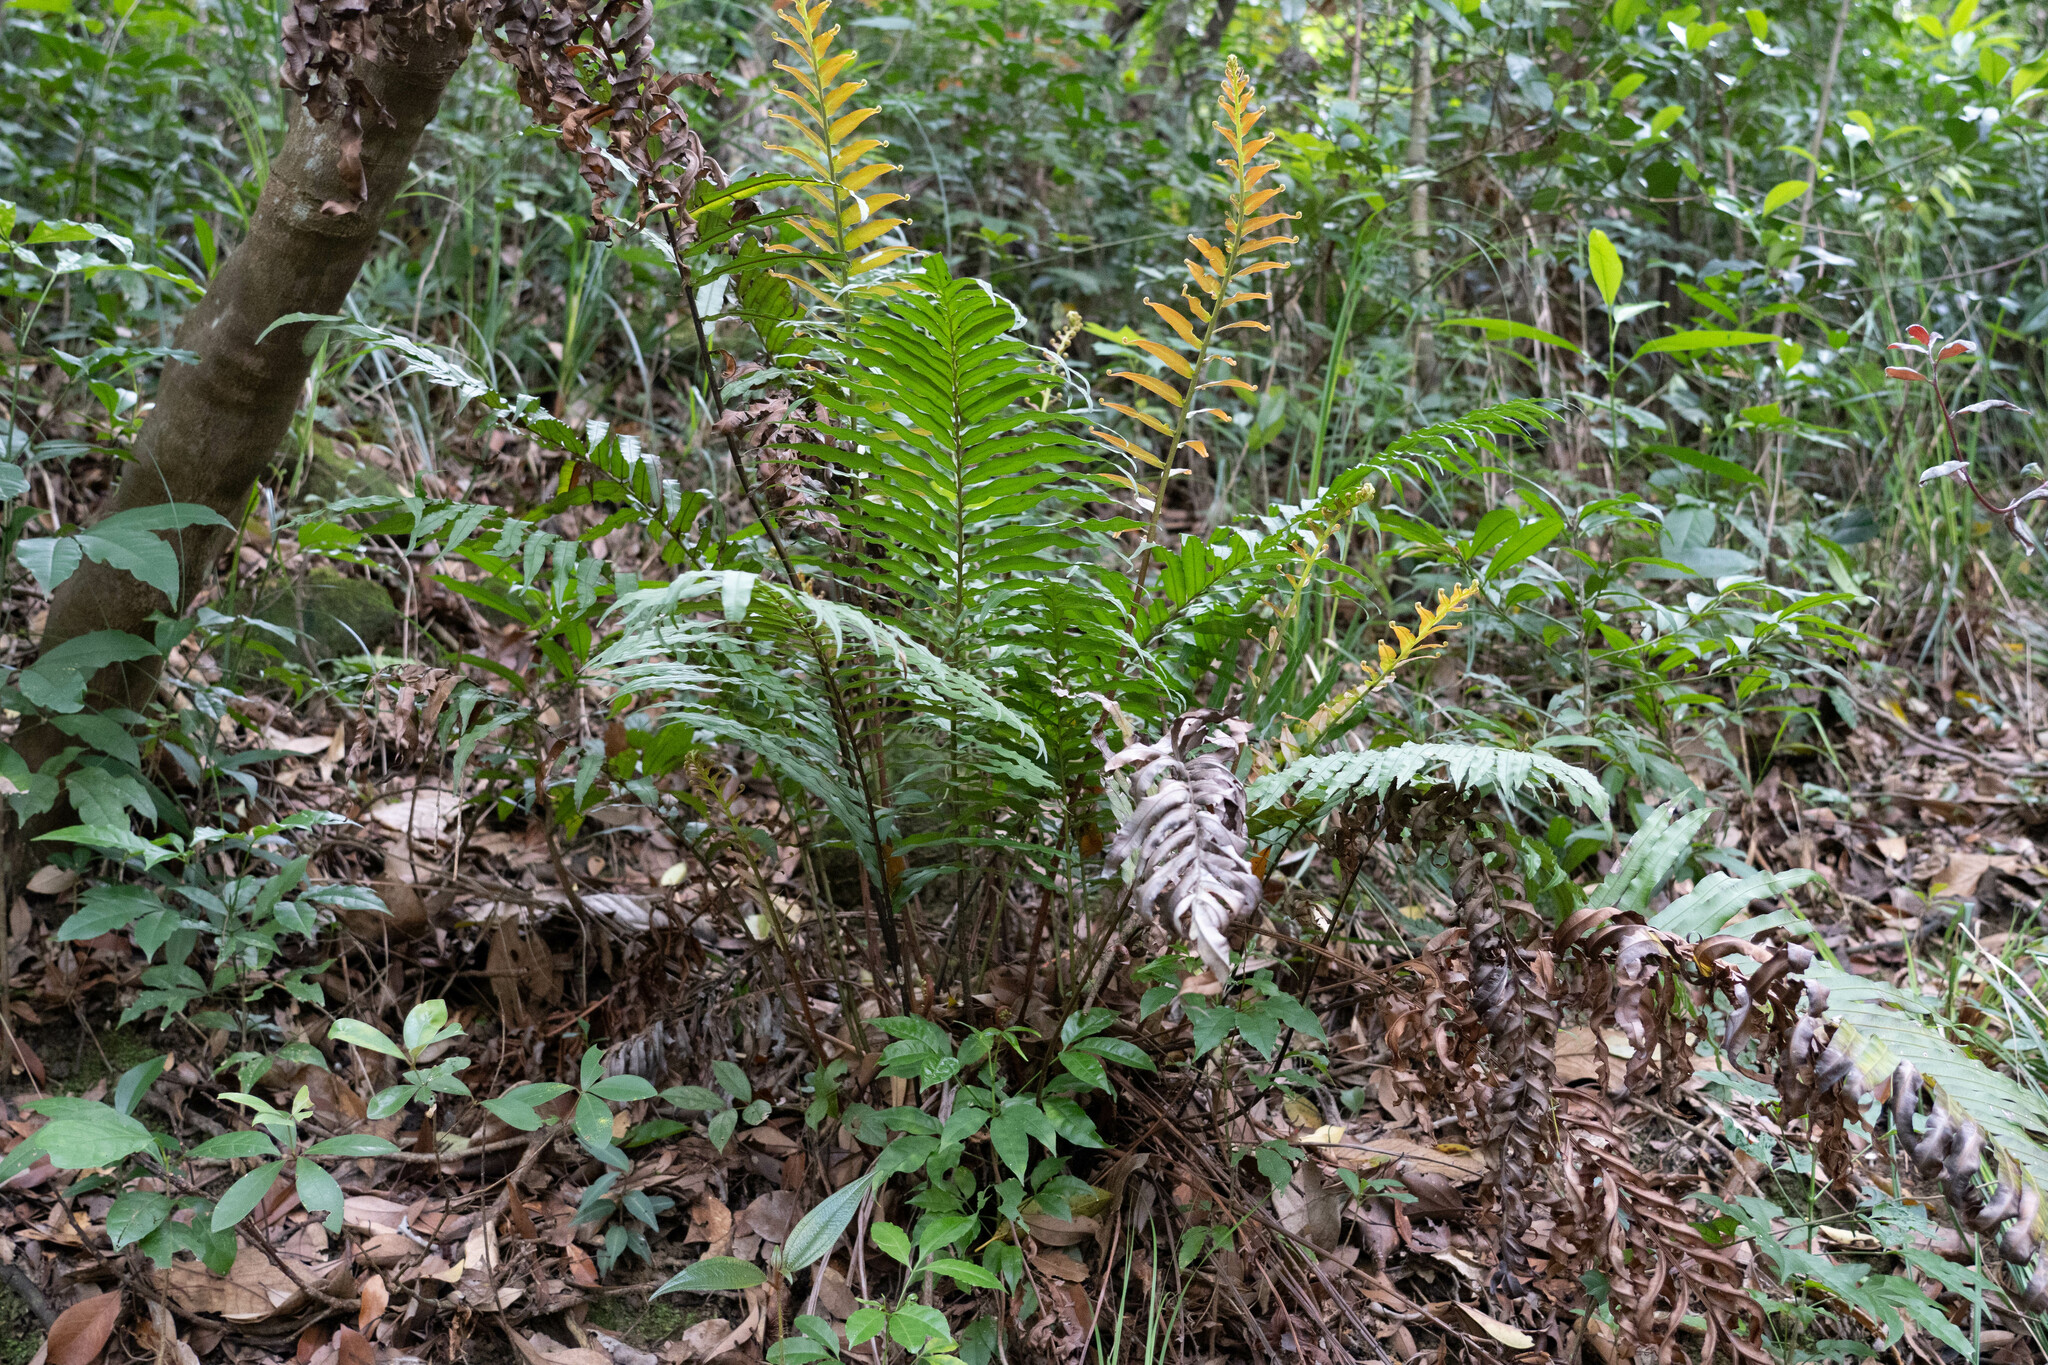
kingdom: Plantae
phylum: Tracheophyta
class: Polypodiopsida
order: Polypodiales
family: Polypodiaceae
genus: Drynaria
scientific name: Drynaria coronans
